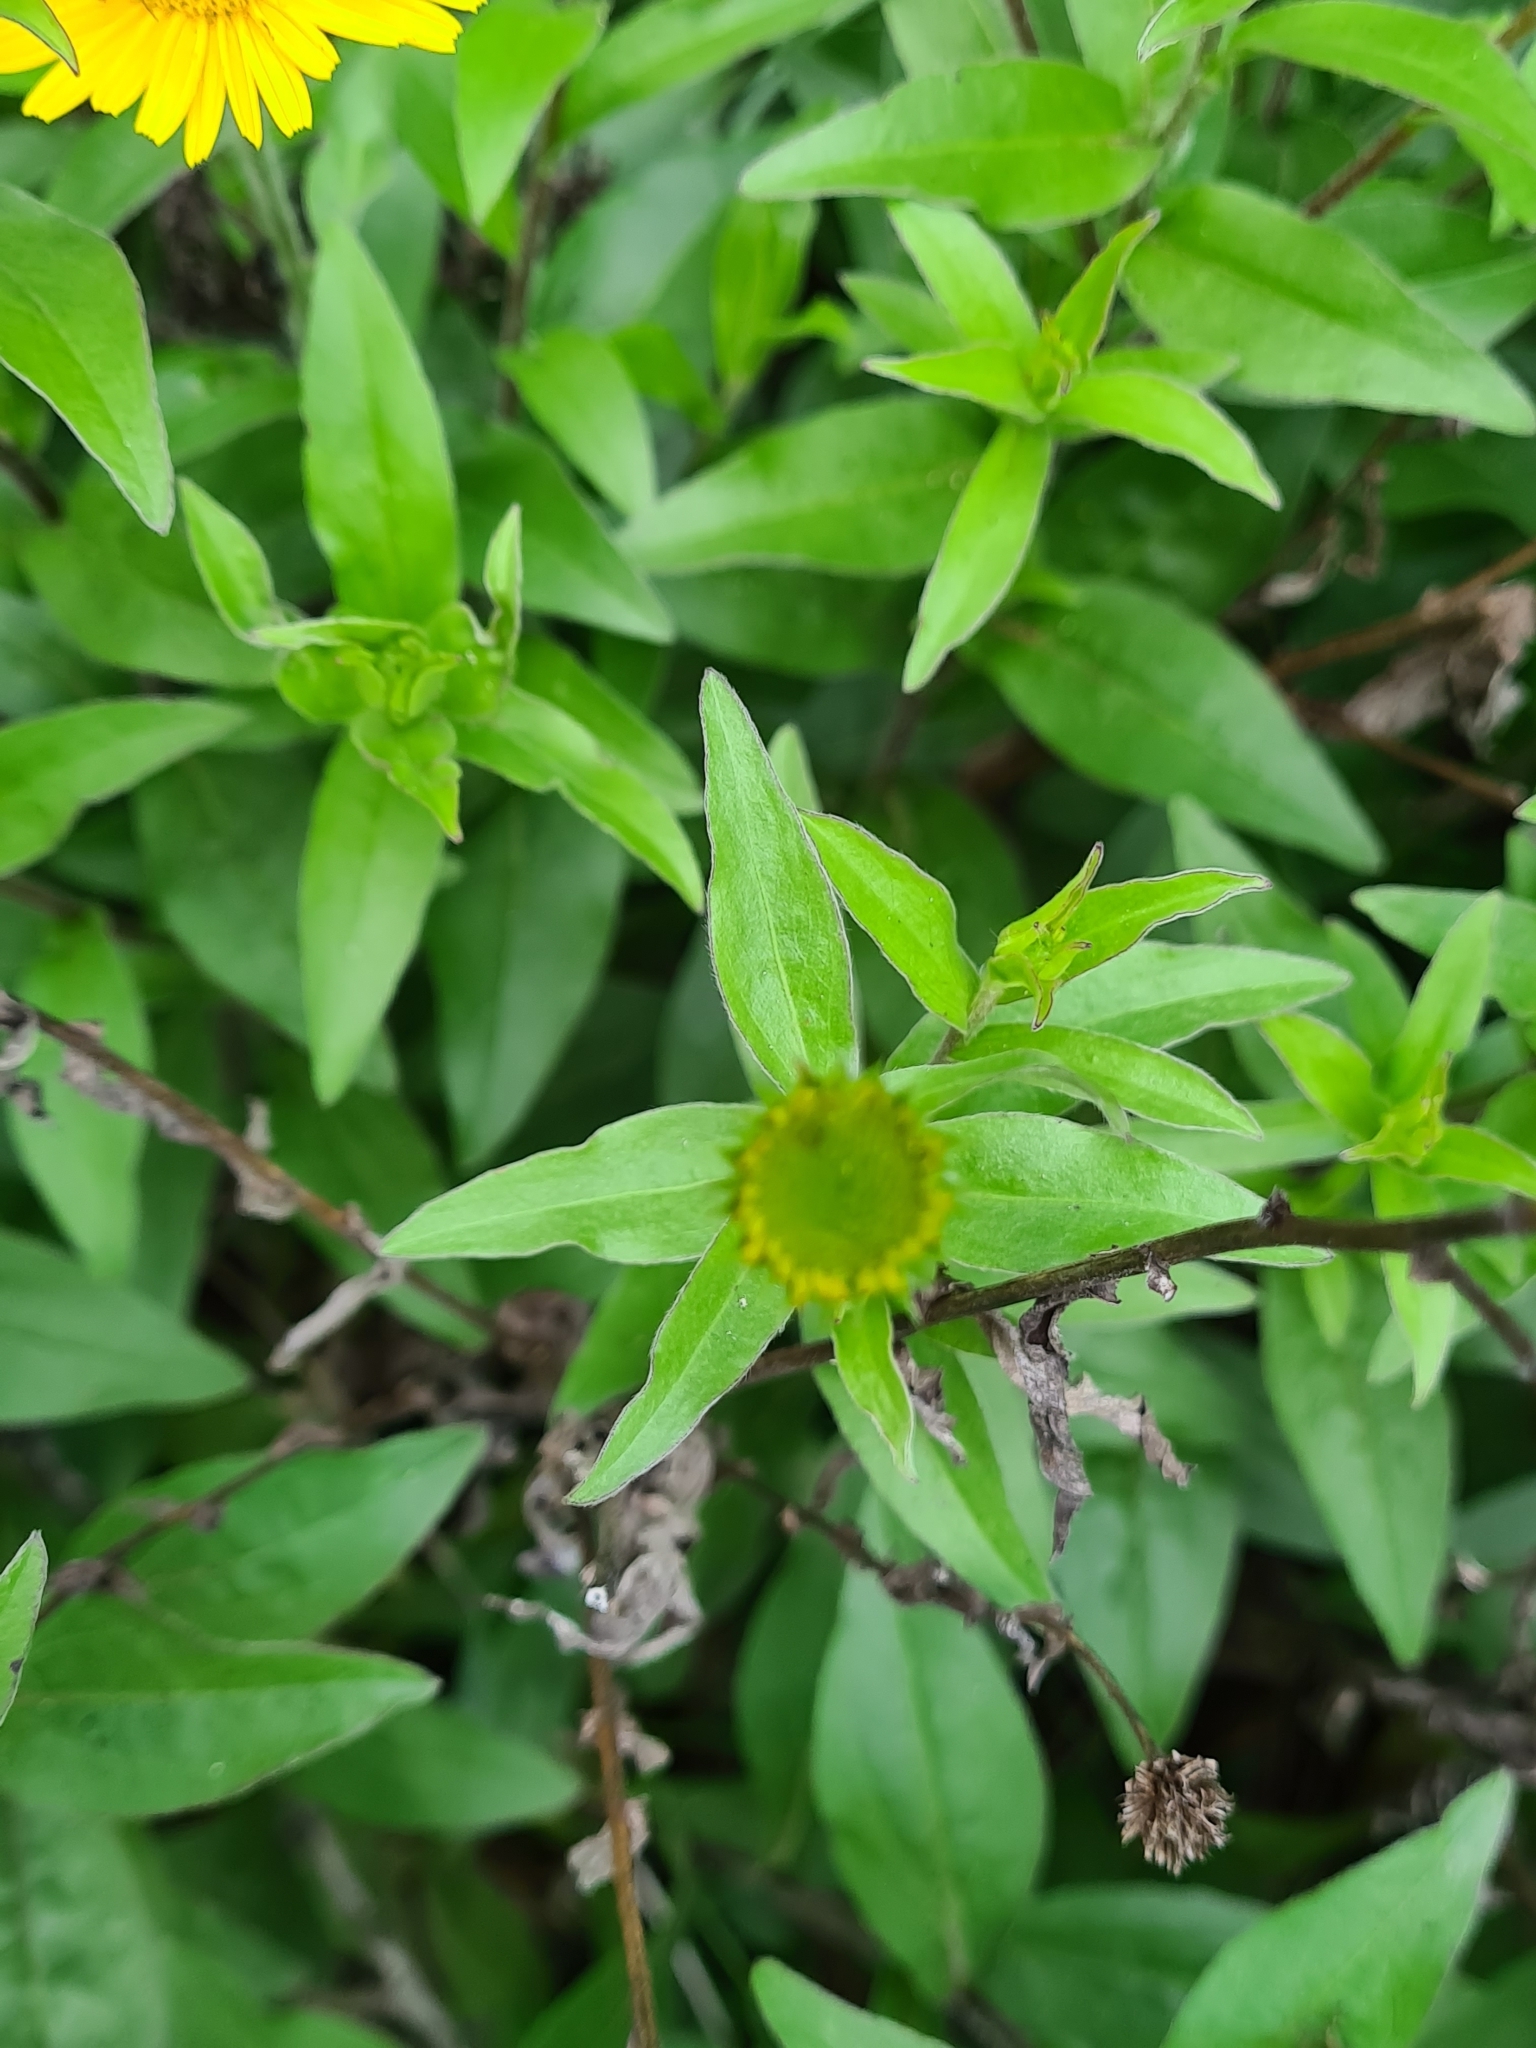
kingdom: Plantae
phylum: Tracheophyta
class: Magnoliopsida
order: Asterales
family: Asteraceae
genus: Buphthalmum
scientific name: Buphthalmum salicifolium
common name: Willow-leaved yellow-oxeye
